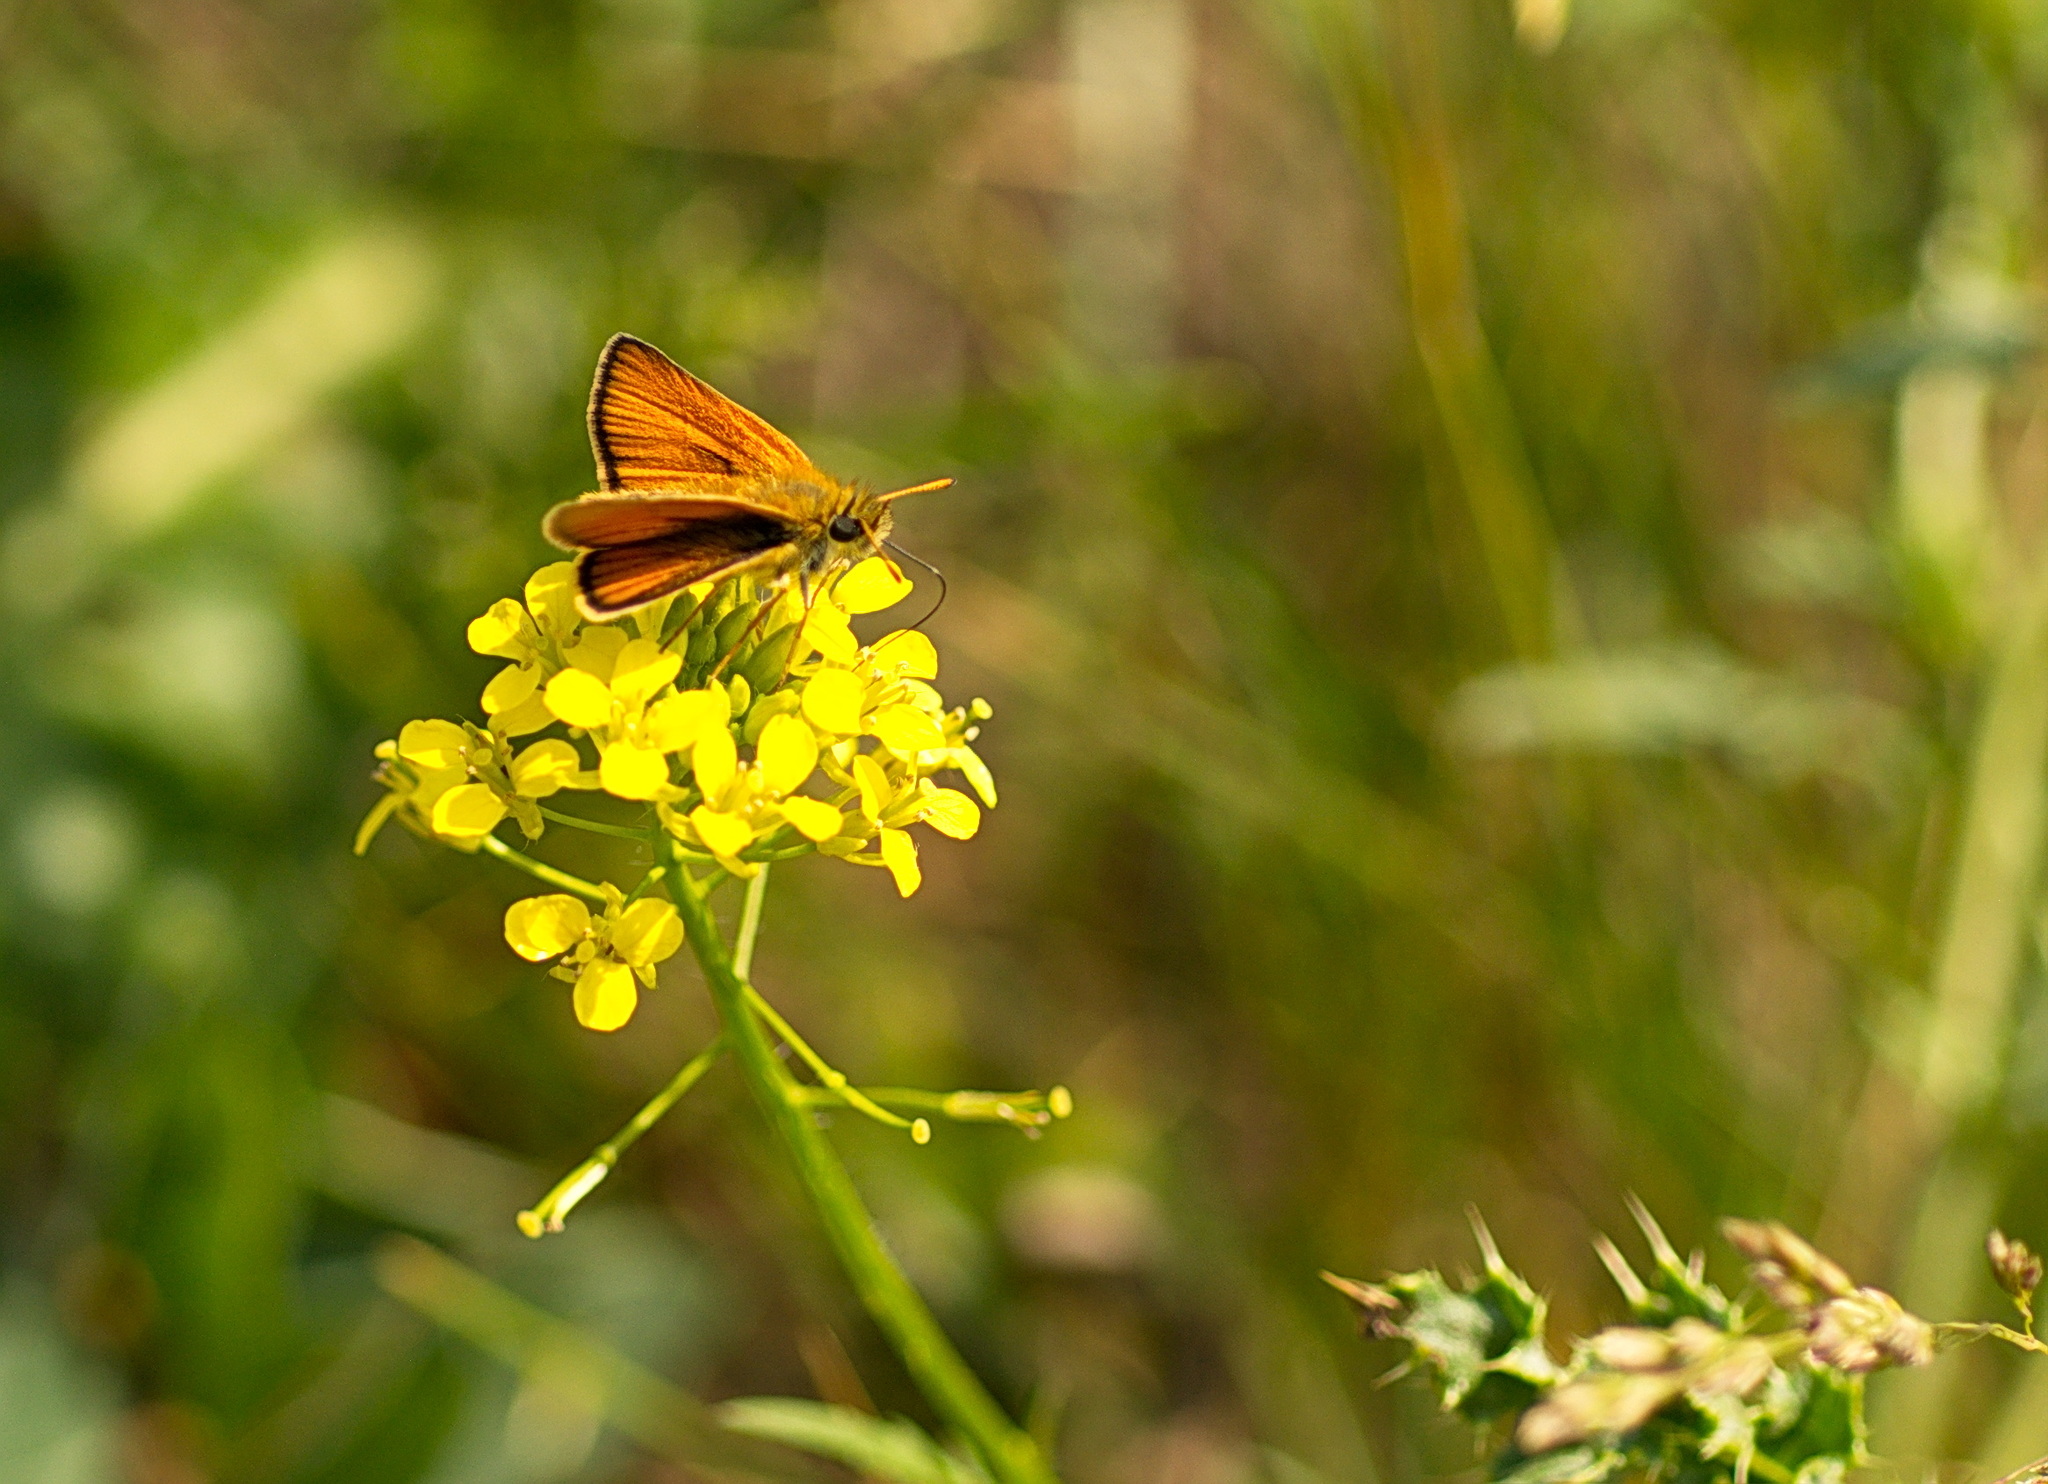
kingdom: Animalia
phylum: Arthropoda
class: Insecta
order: Lepidoptera
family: Hesperiidae
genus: Thymelicus
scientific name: Thymelicus lineola
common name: Essex skipper
